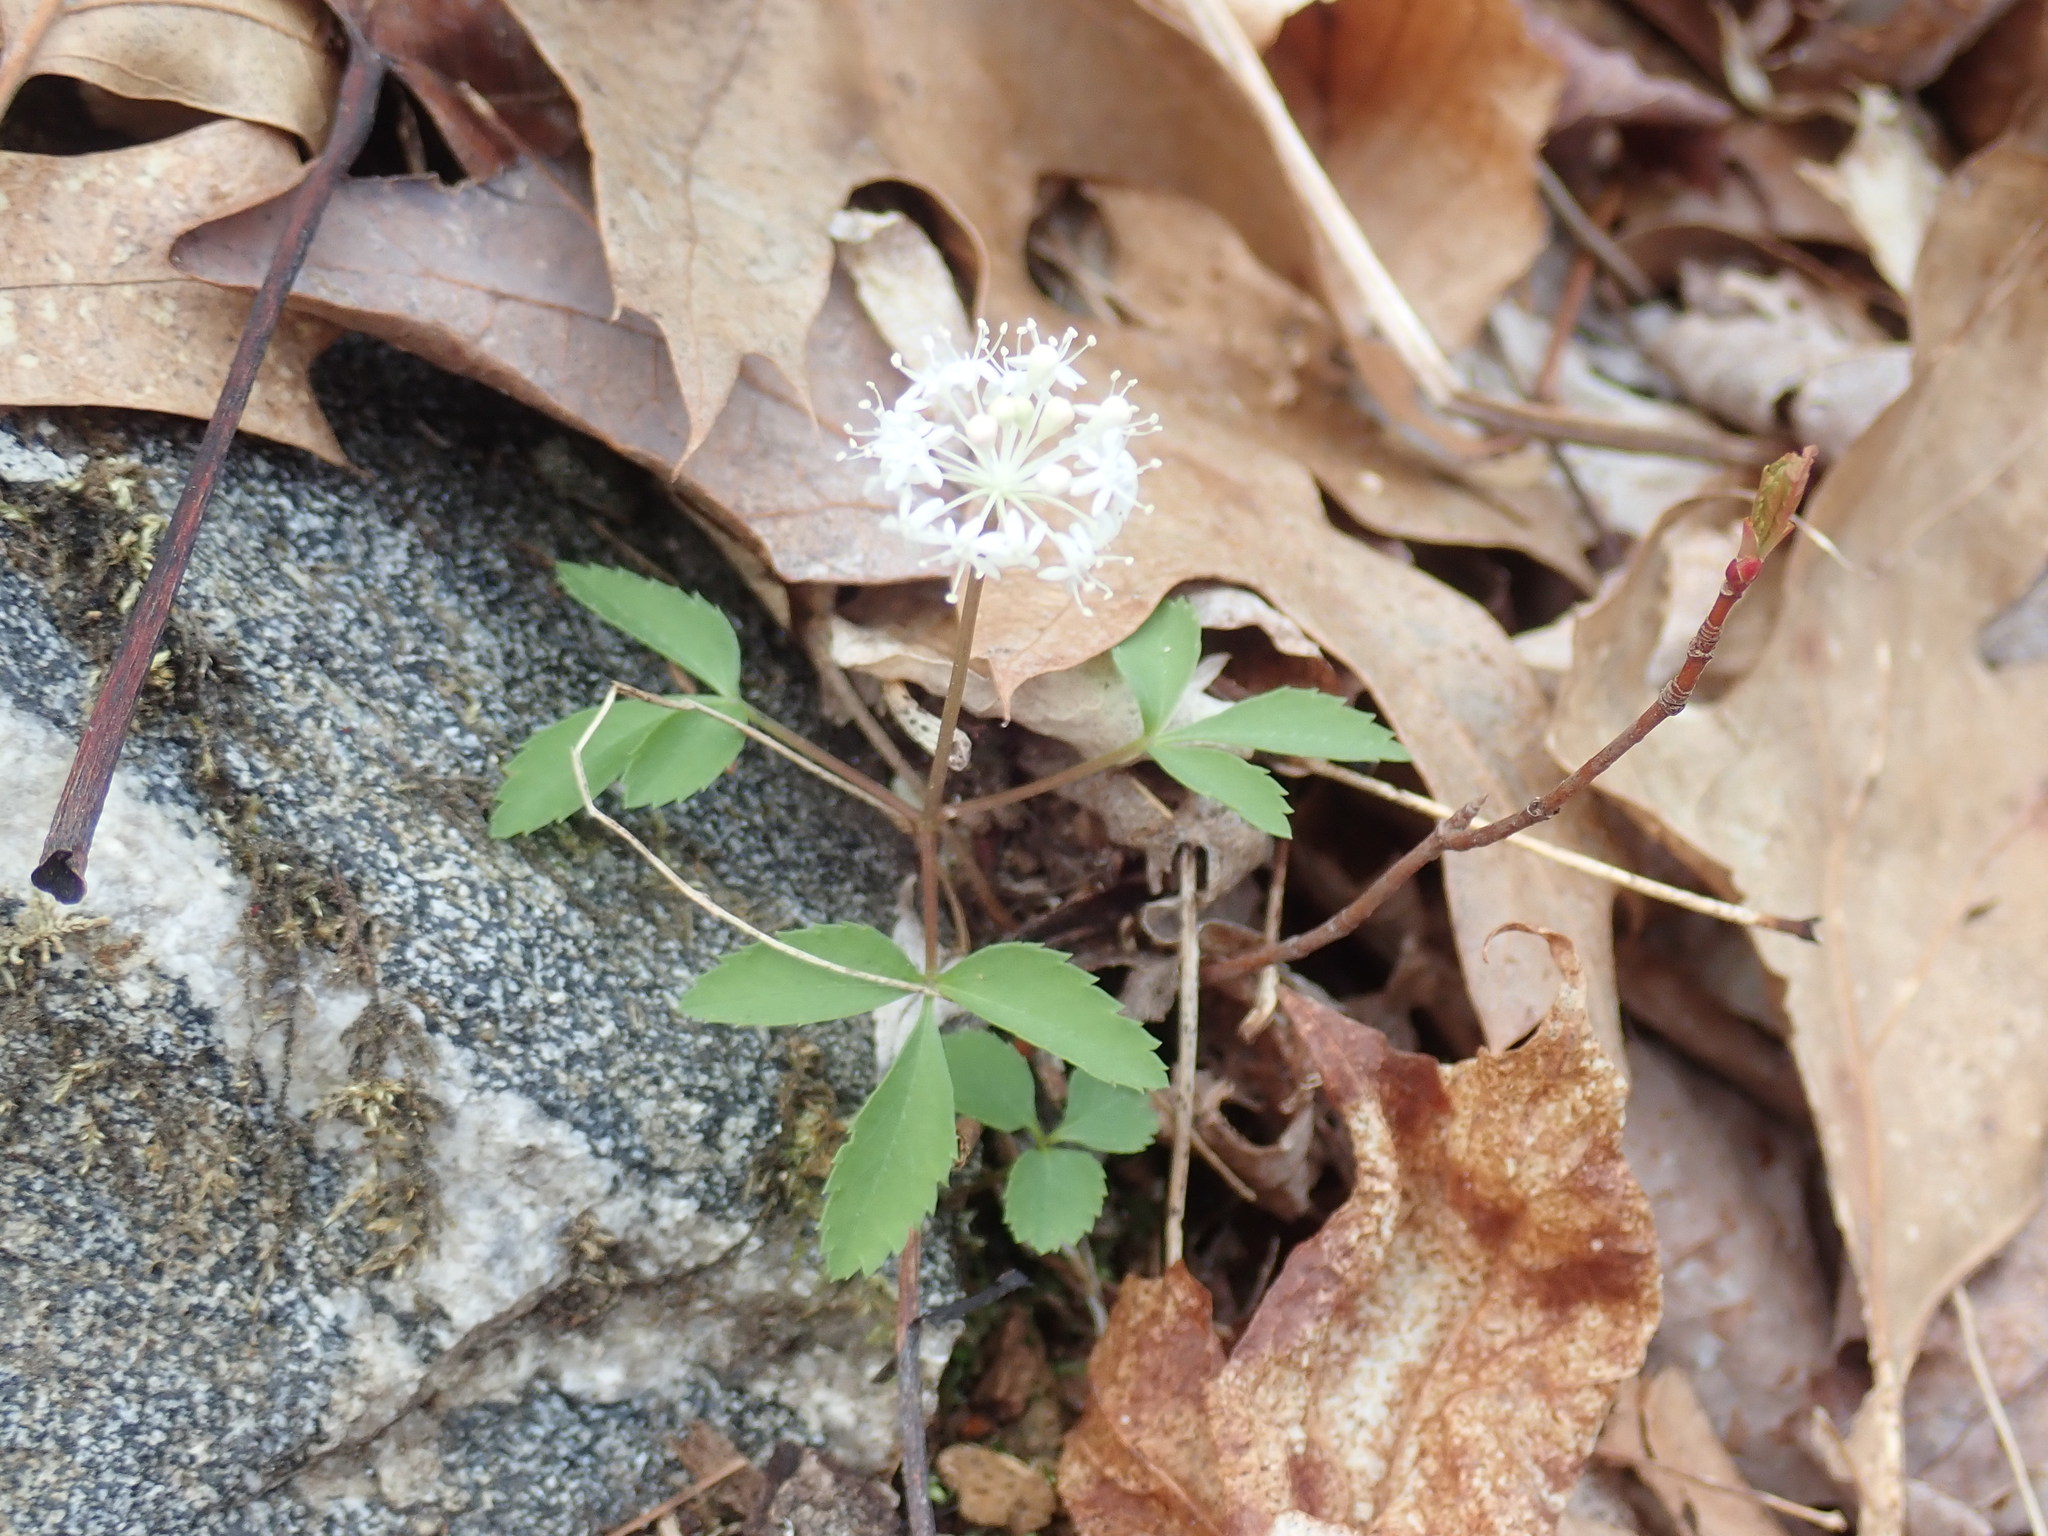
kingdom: Plantae
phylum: Tracheophyta
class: Magnoliopsida
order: Apiales
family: Araliaceae
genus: Panax
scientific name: Panax trifolius
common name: Dwarf ginseng
